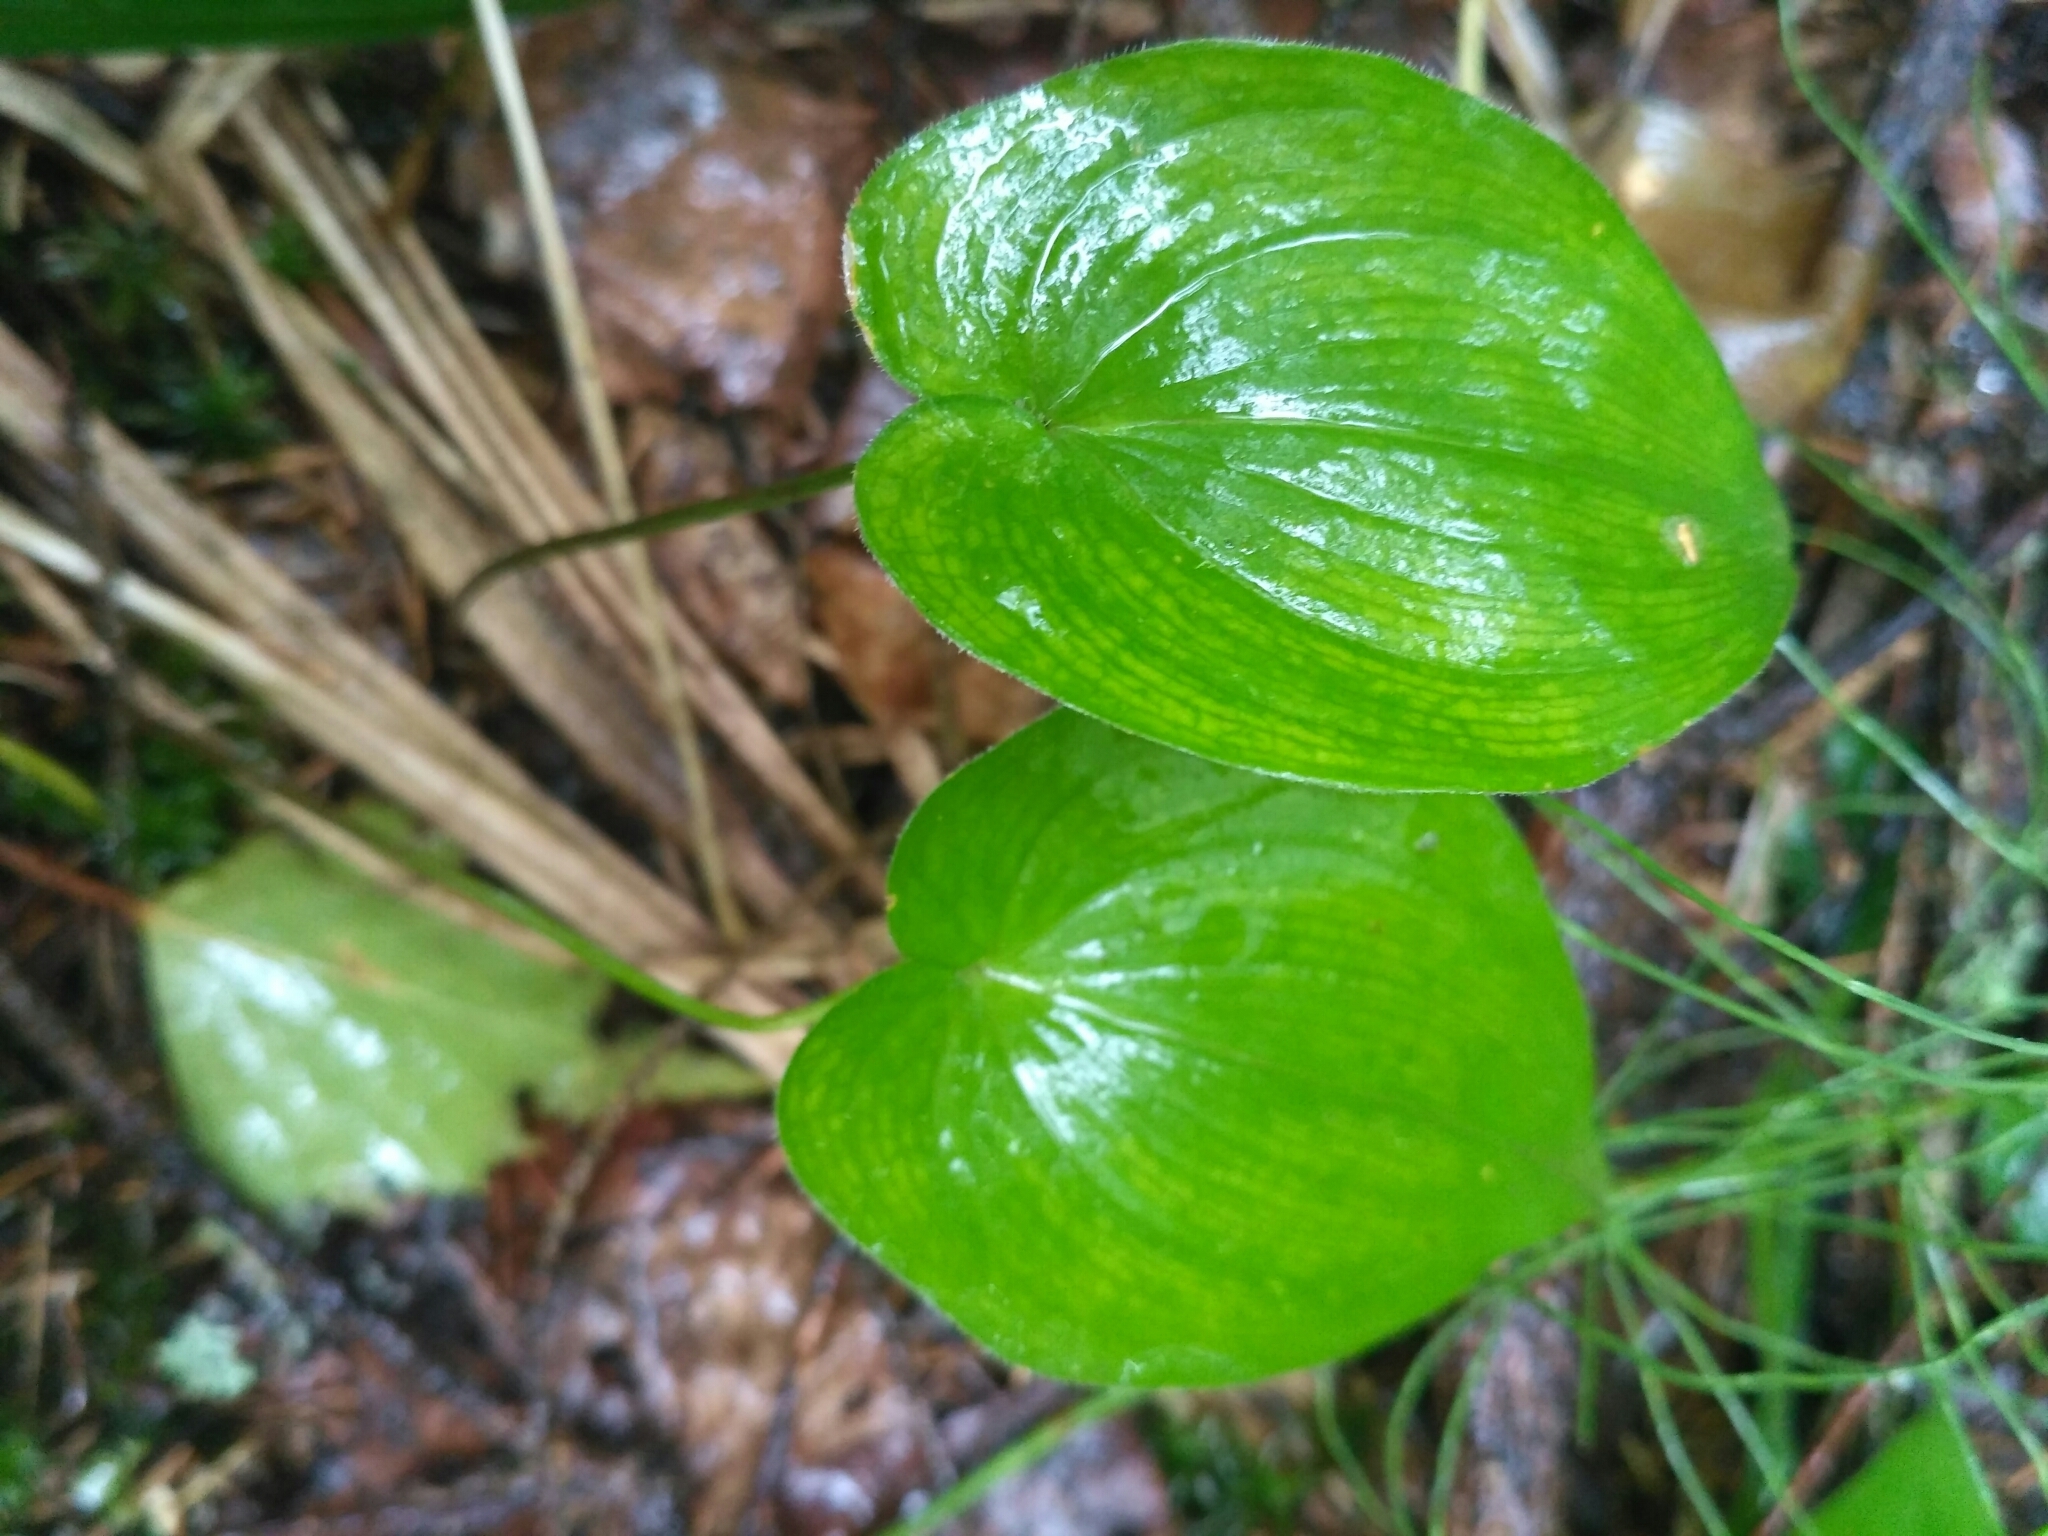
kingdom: Plantae
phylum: Tracheophyta
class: Liliopsida
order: Asparagales
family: Asparagaceae
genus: Maianthemum
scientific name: Maianthemum bifolium
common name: May lily
